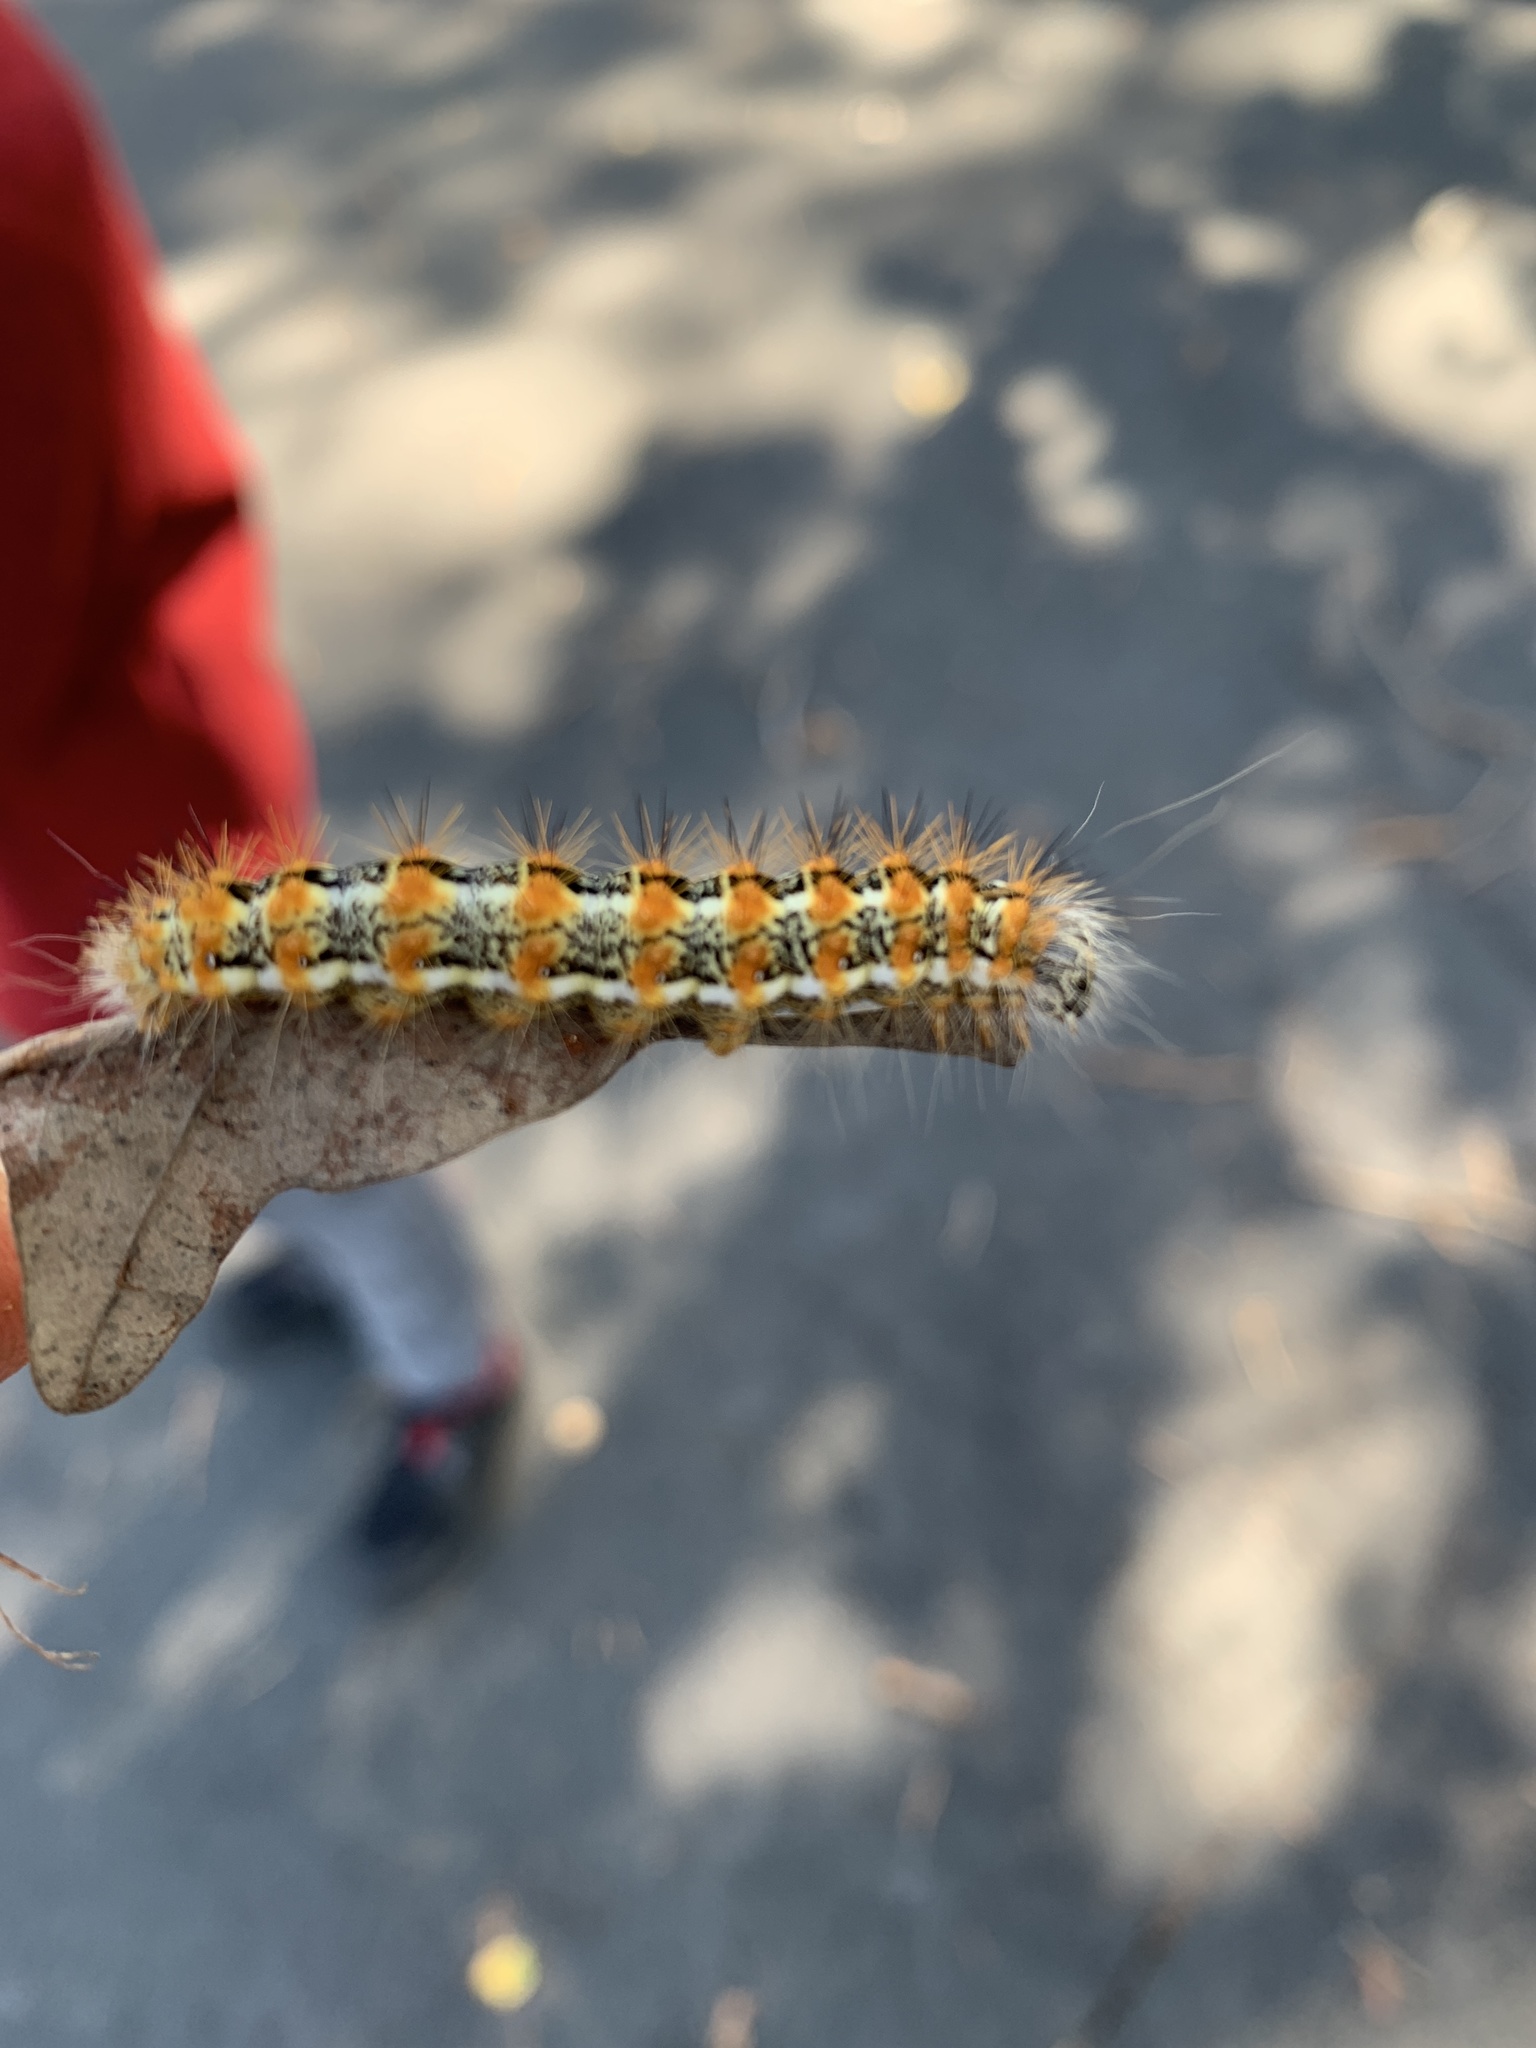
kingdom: Animalia
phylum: Arthropoda
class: Insecta
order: Lepidoptera
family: Noctuidae
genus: Acronicta
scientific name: Acronicta insularis
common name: Henry's marsh moth
